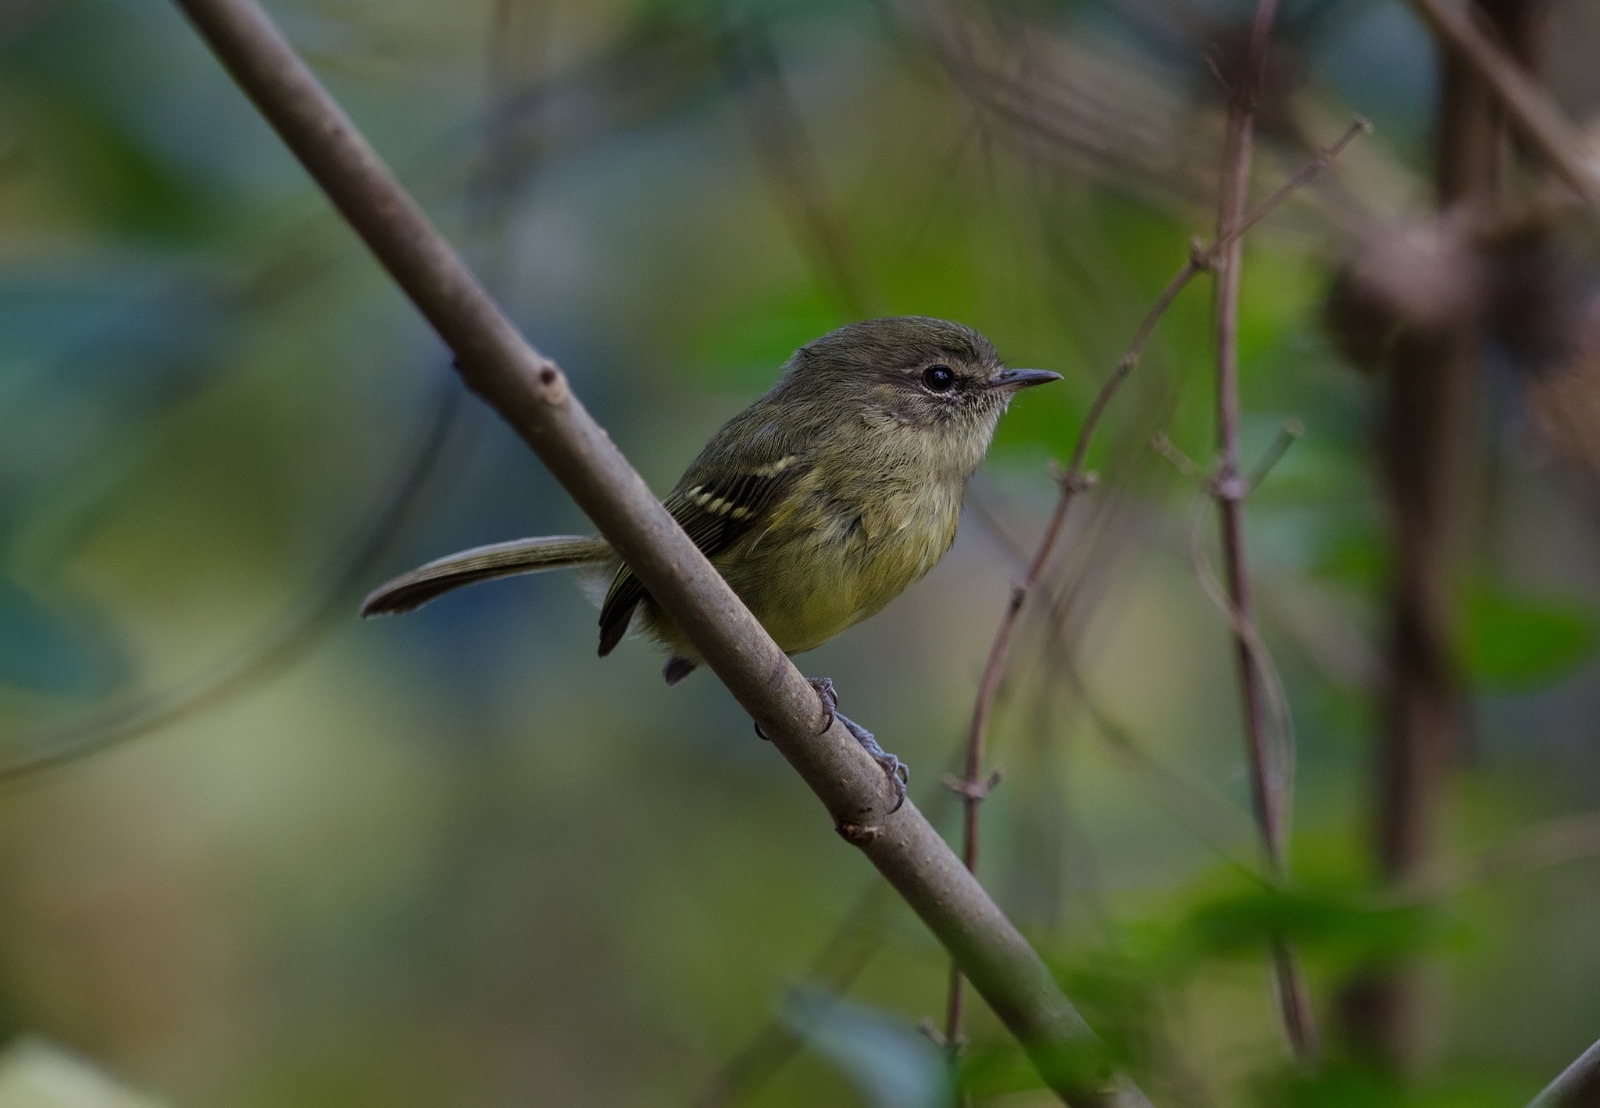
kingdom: Animalia
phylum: Chordata
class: Aves
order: Passeriformes
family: Tyrannidae
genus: Phylloscartes
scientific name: Phylloscartes ventralis
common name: Mottle-cheeked tyrannulet
